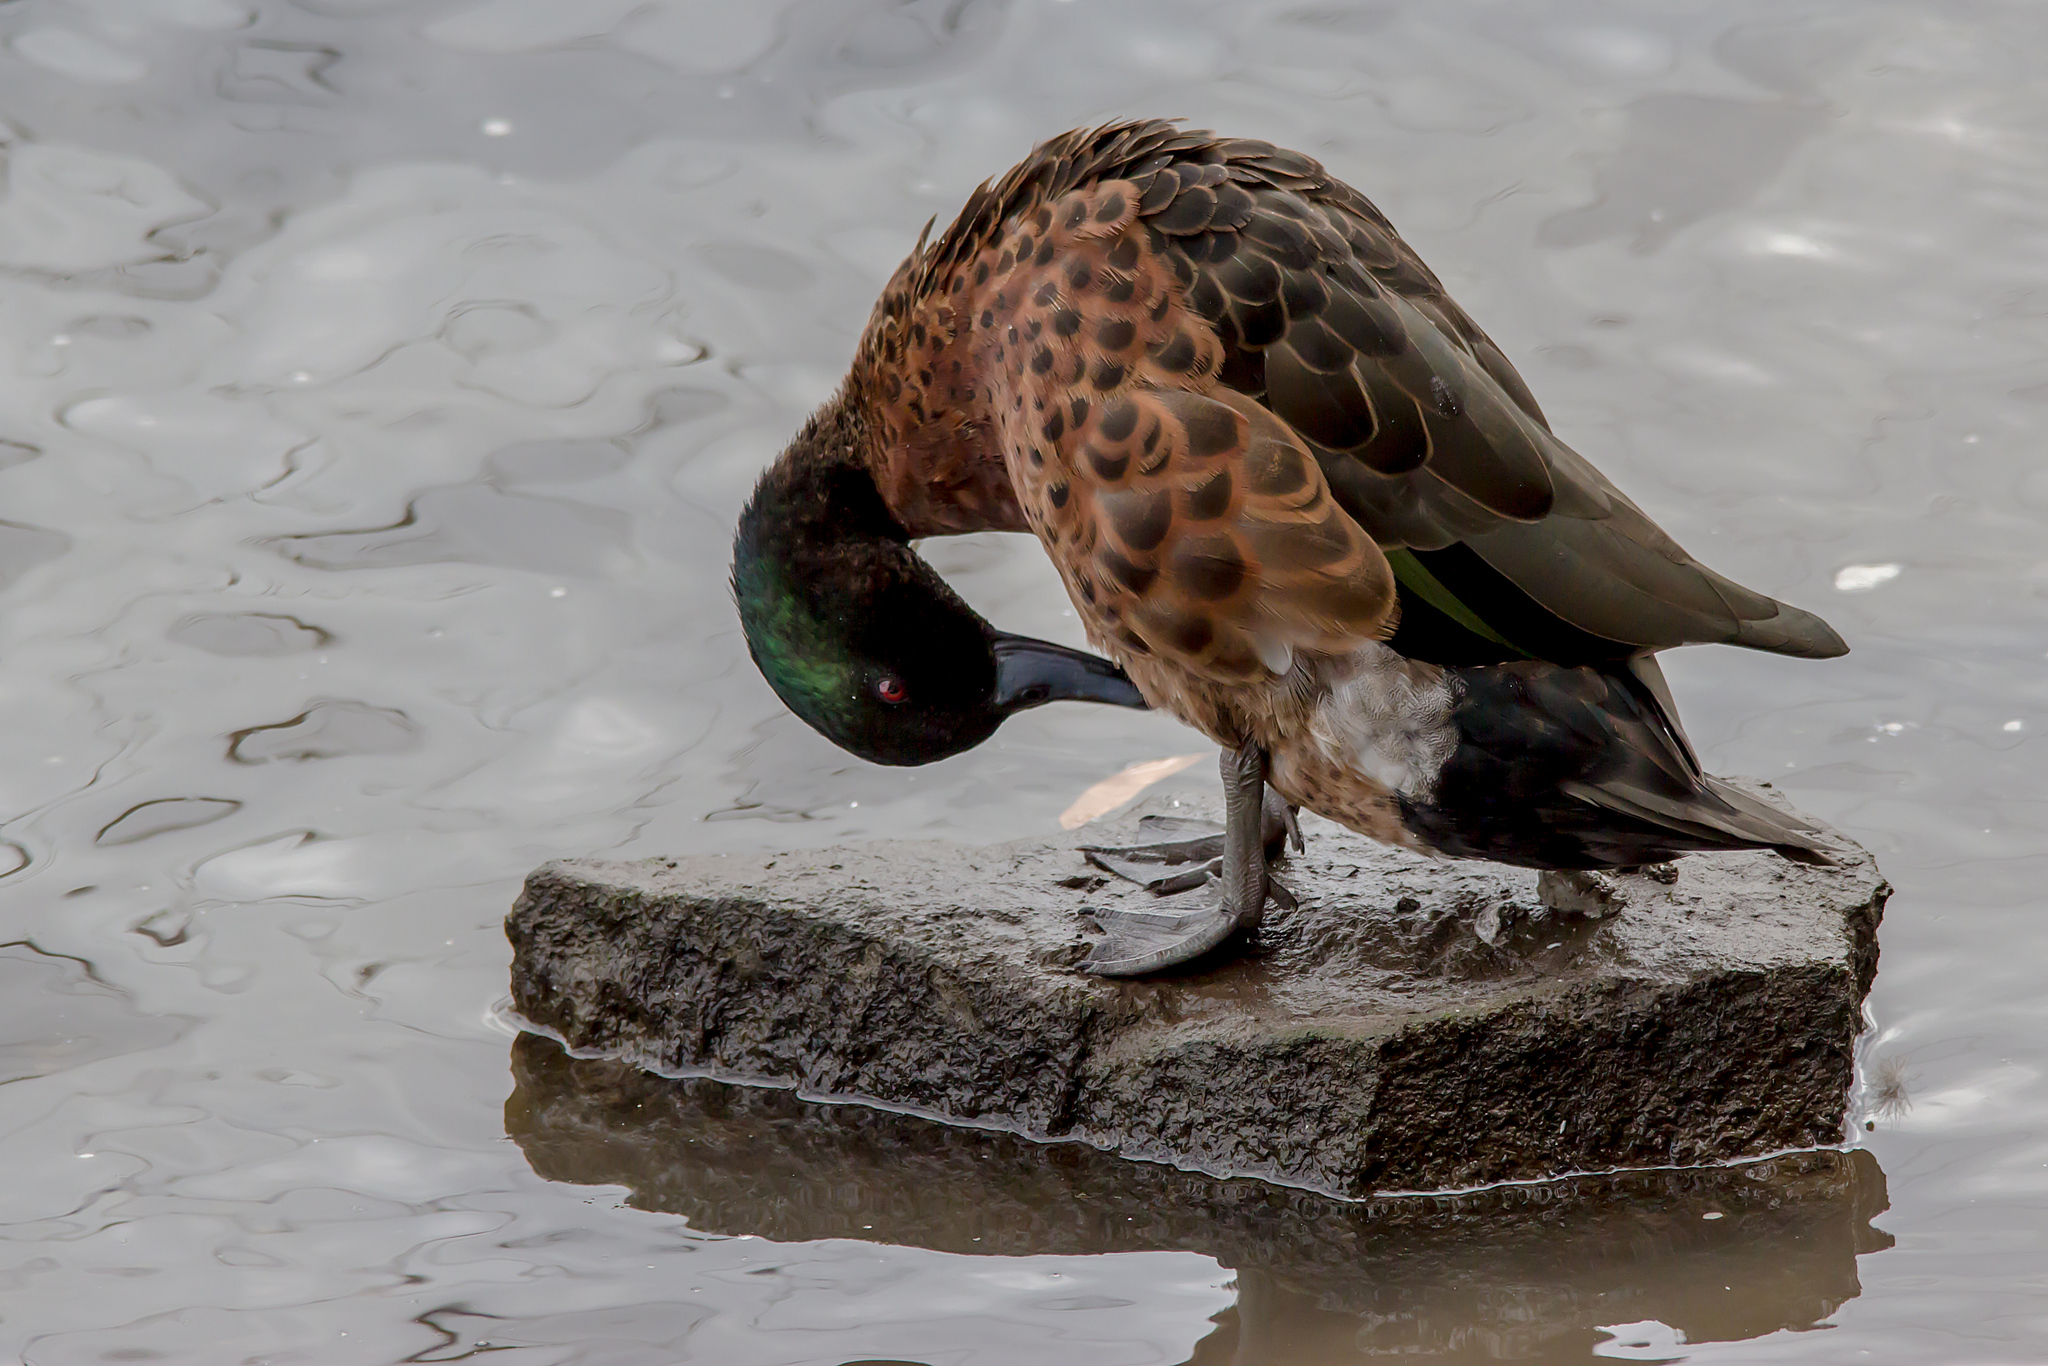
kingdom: Animalia
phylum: Chordata
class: Aves
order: Anseriformes
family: Anatidae
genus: Anas
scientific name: Anas castanea
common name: Chestnut teal
